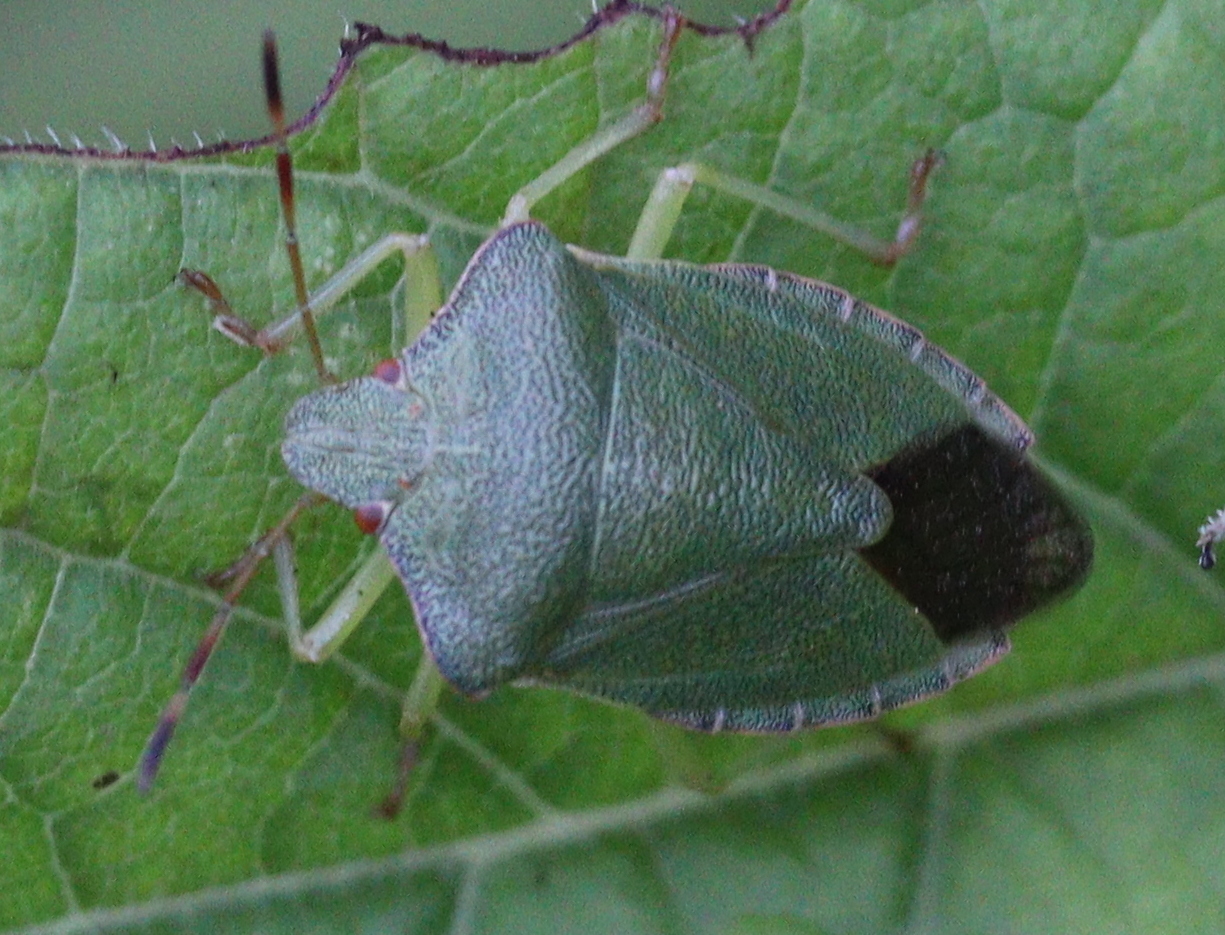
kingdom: Animalia
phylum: Arthropoda
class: Insecta
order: Hemiptera
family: Pentatomidae
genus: Palomena
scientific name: Palomena prasina
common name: Green shieldbug
